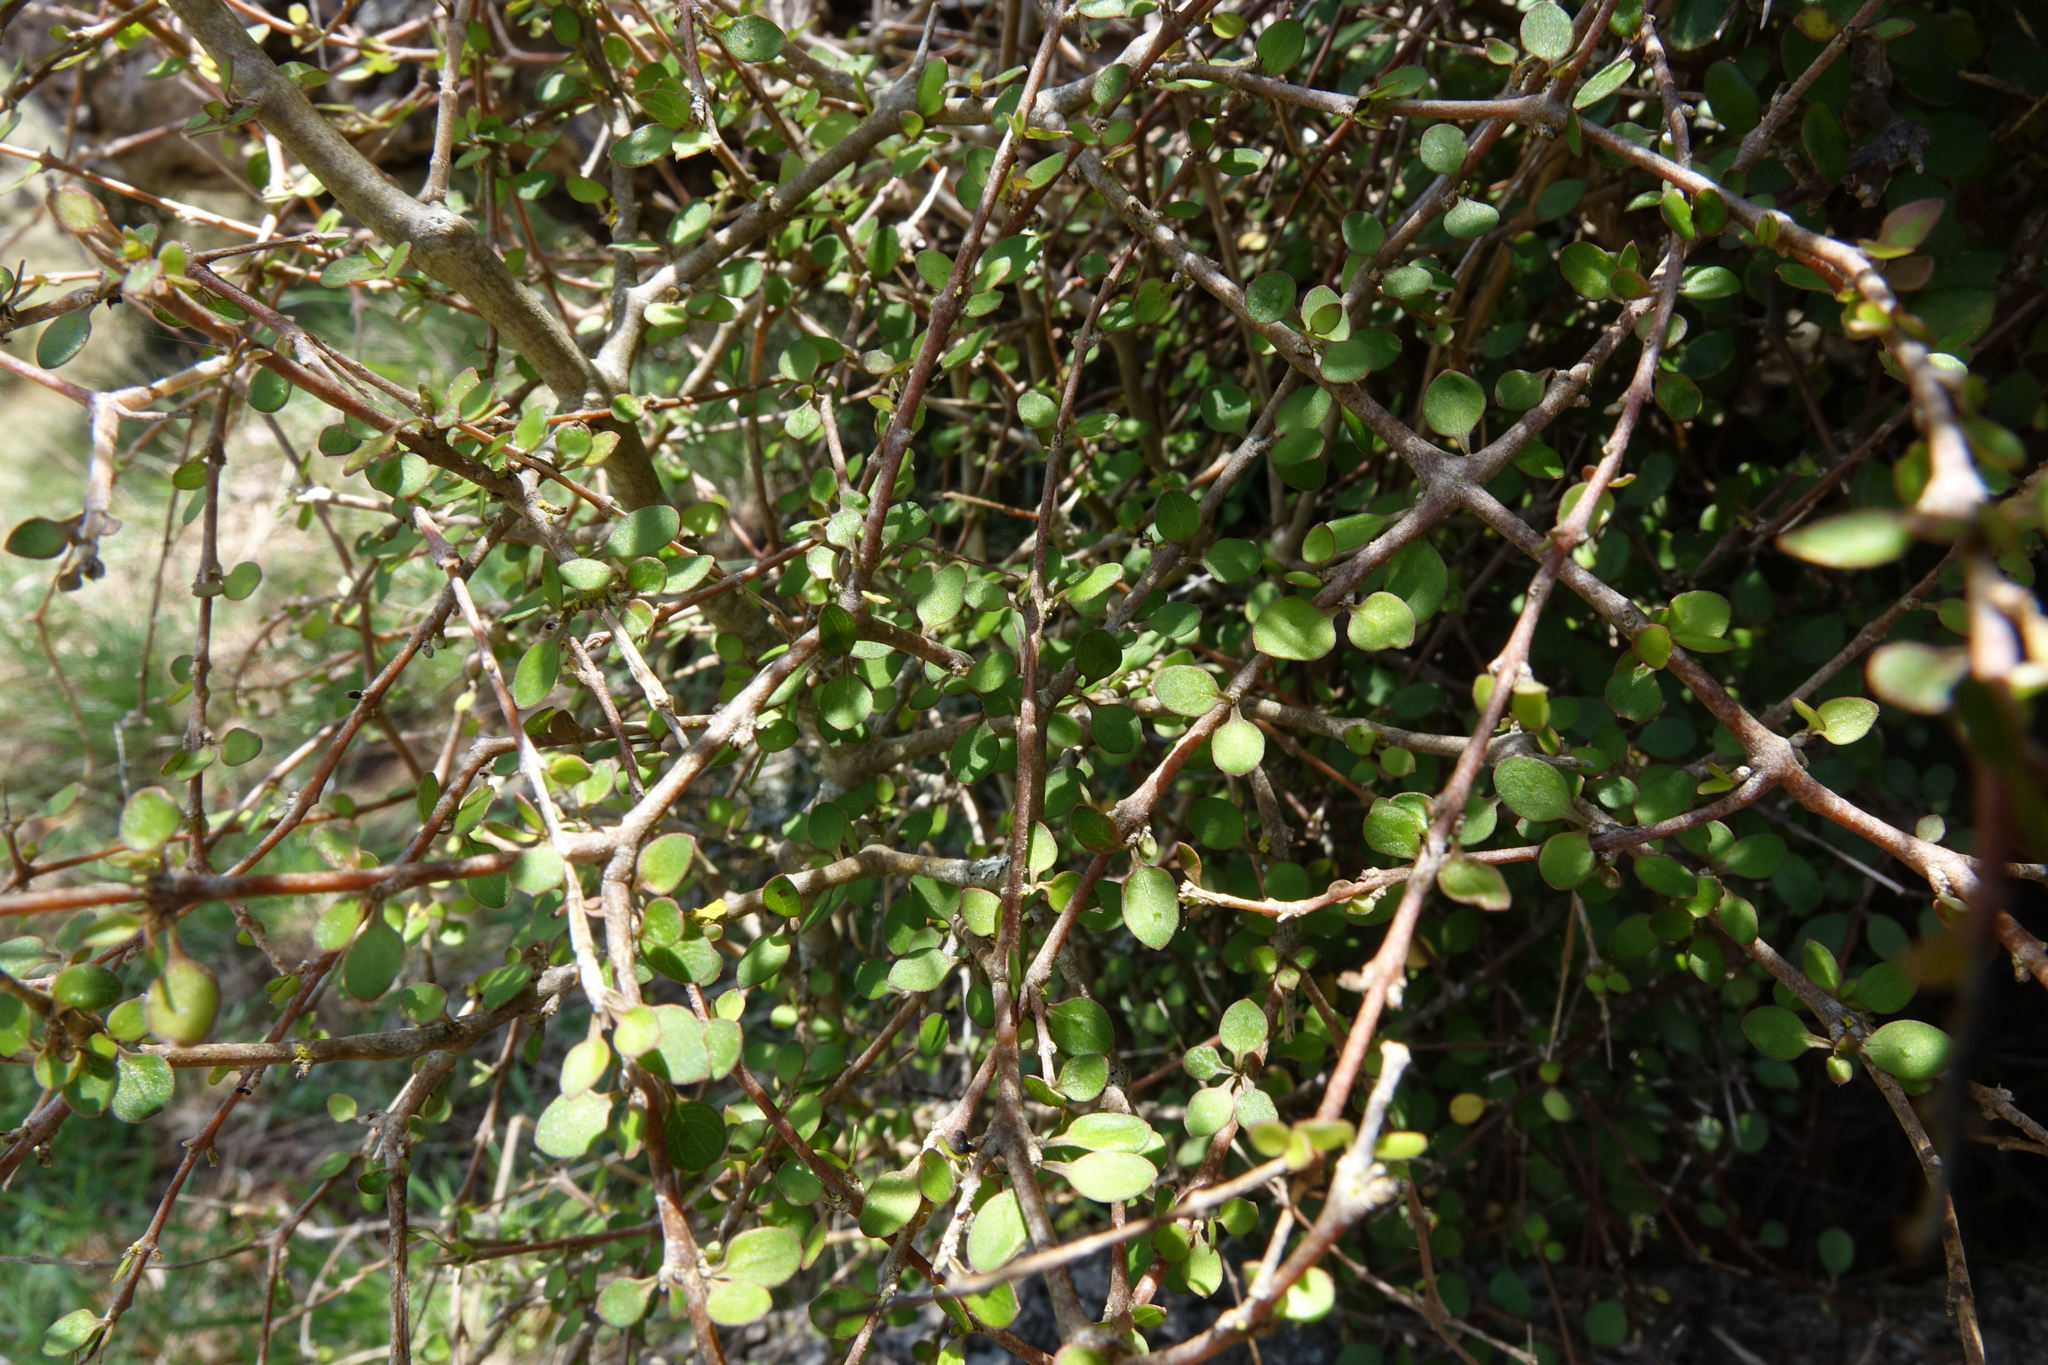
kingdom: Plantae
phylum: Tracheophyta
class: Magnoliopsida
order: Gentianales
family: Rubiaceae
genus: Coprosma
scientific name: Coprosma virescens
